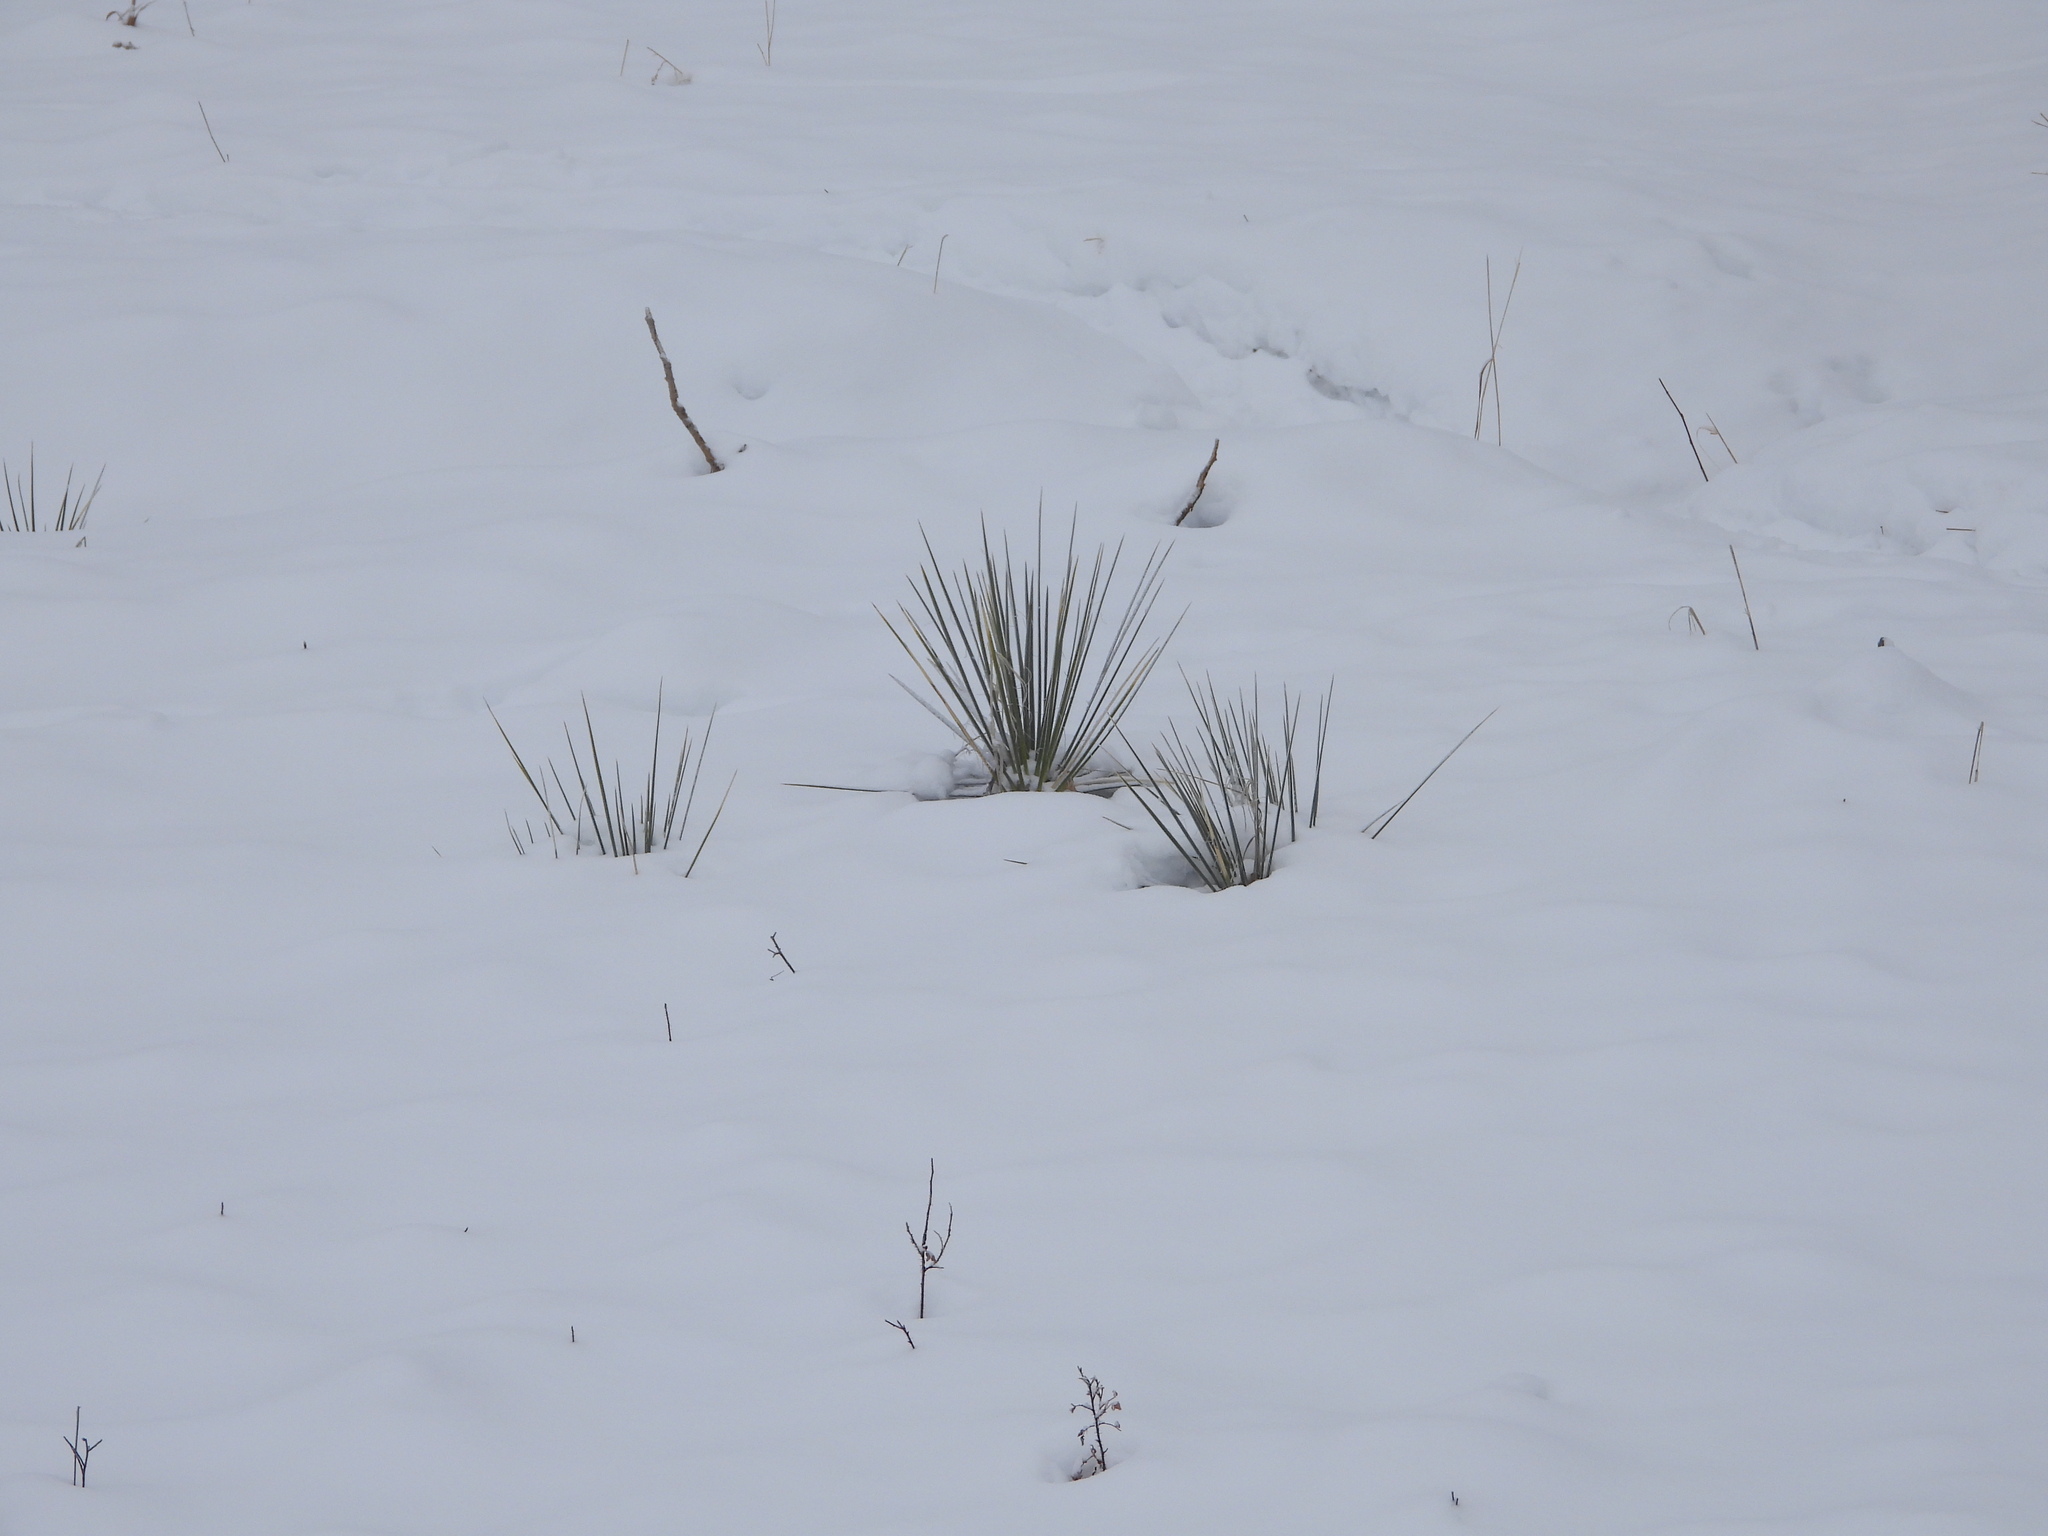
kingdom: Plantae
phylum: Tracheophyta
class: Liliopsida
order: Asparagales
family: Asparagaceae
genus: Yucca
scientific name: Yucca glauca
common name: Great plains yucca
